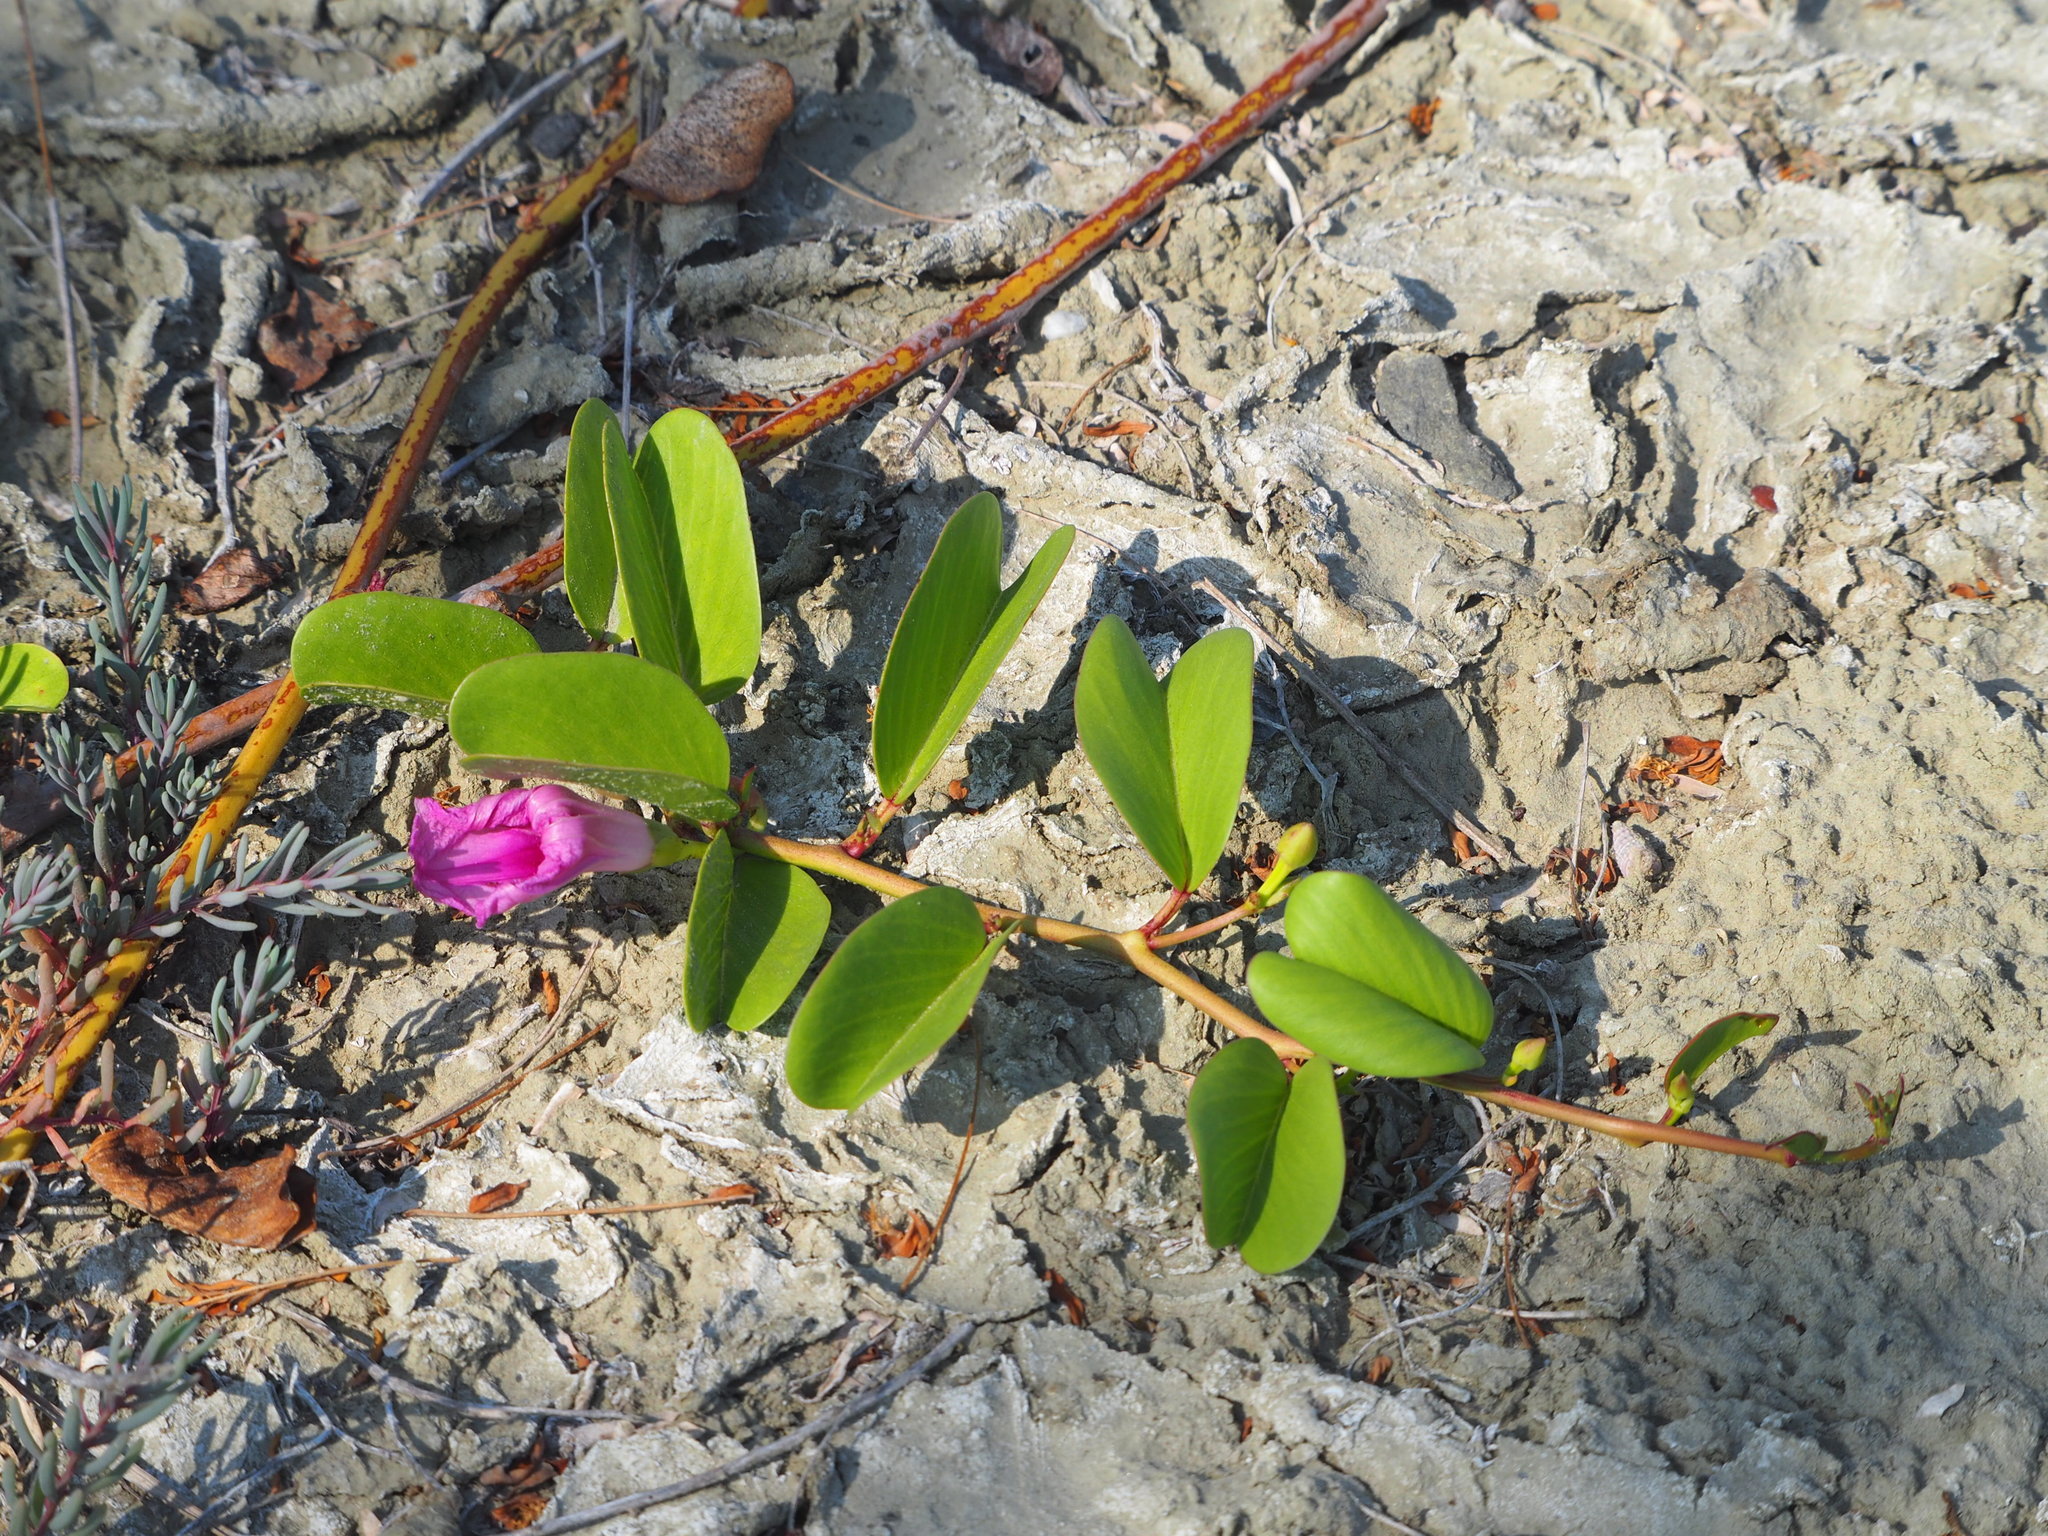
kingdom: Plantae
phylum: Tracheophyta
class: Magnoliopsida
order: Solanales
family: Convolvulaceae
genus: Ipomoea
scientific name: Ipomoea pes-caprae
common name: Beach morning glory
